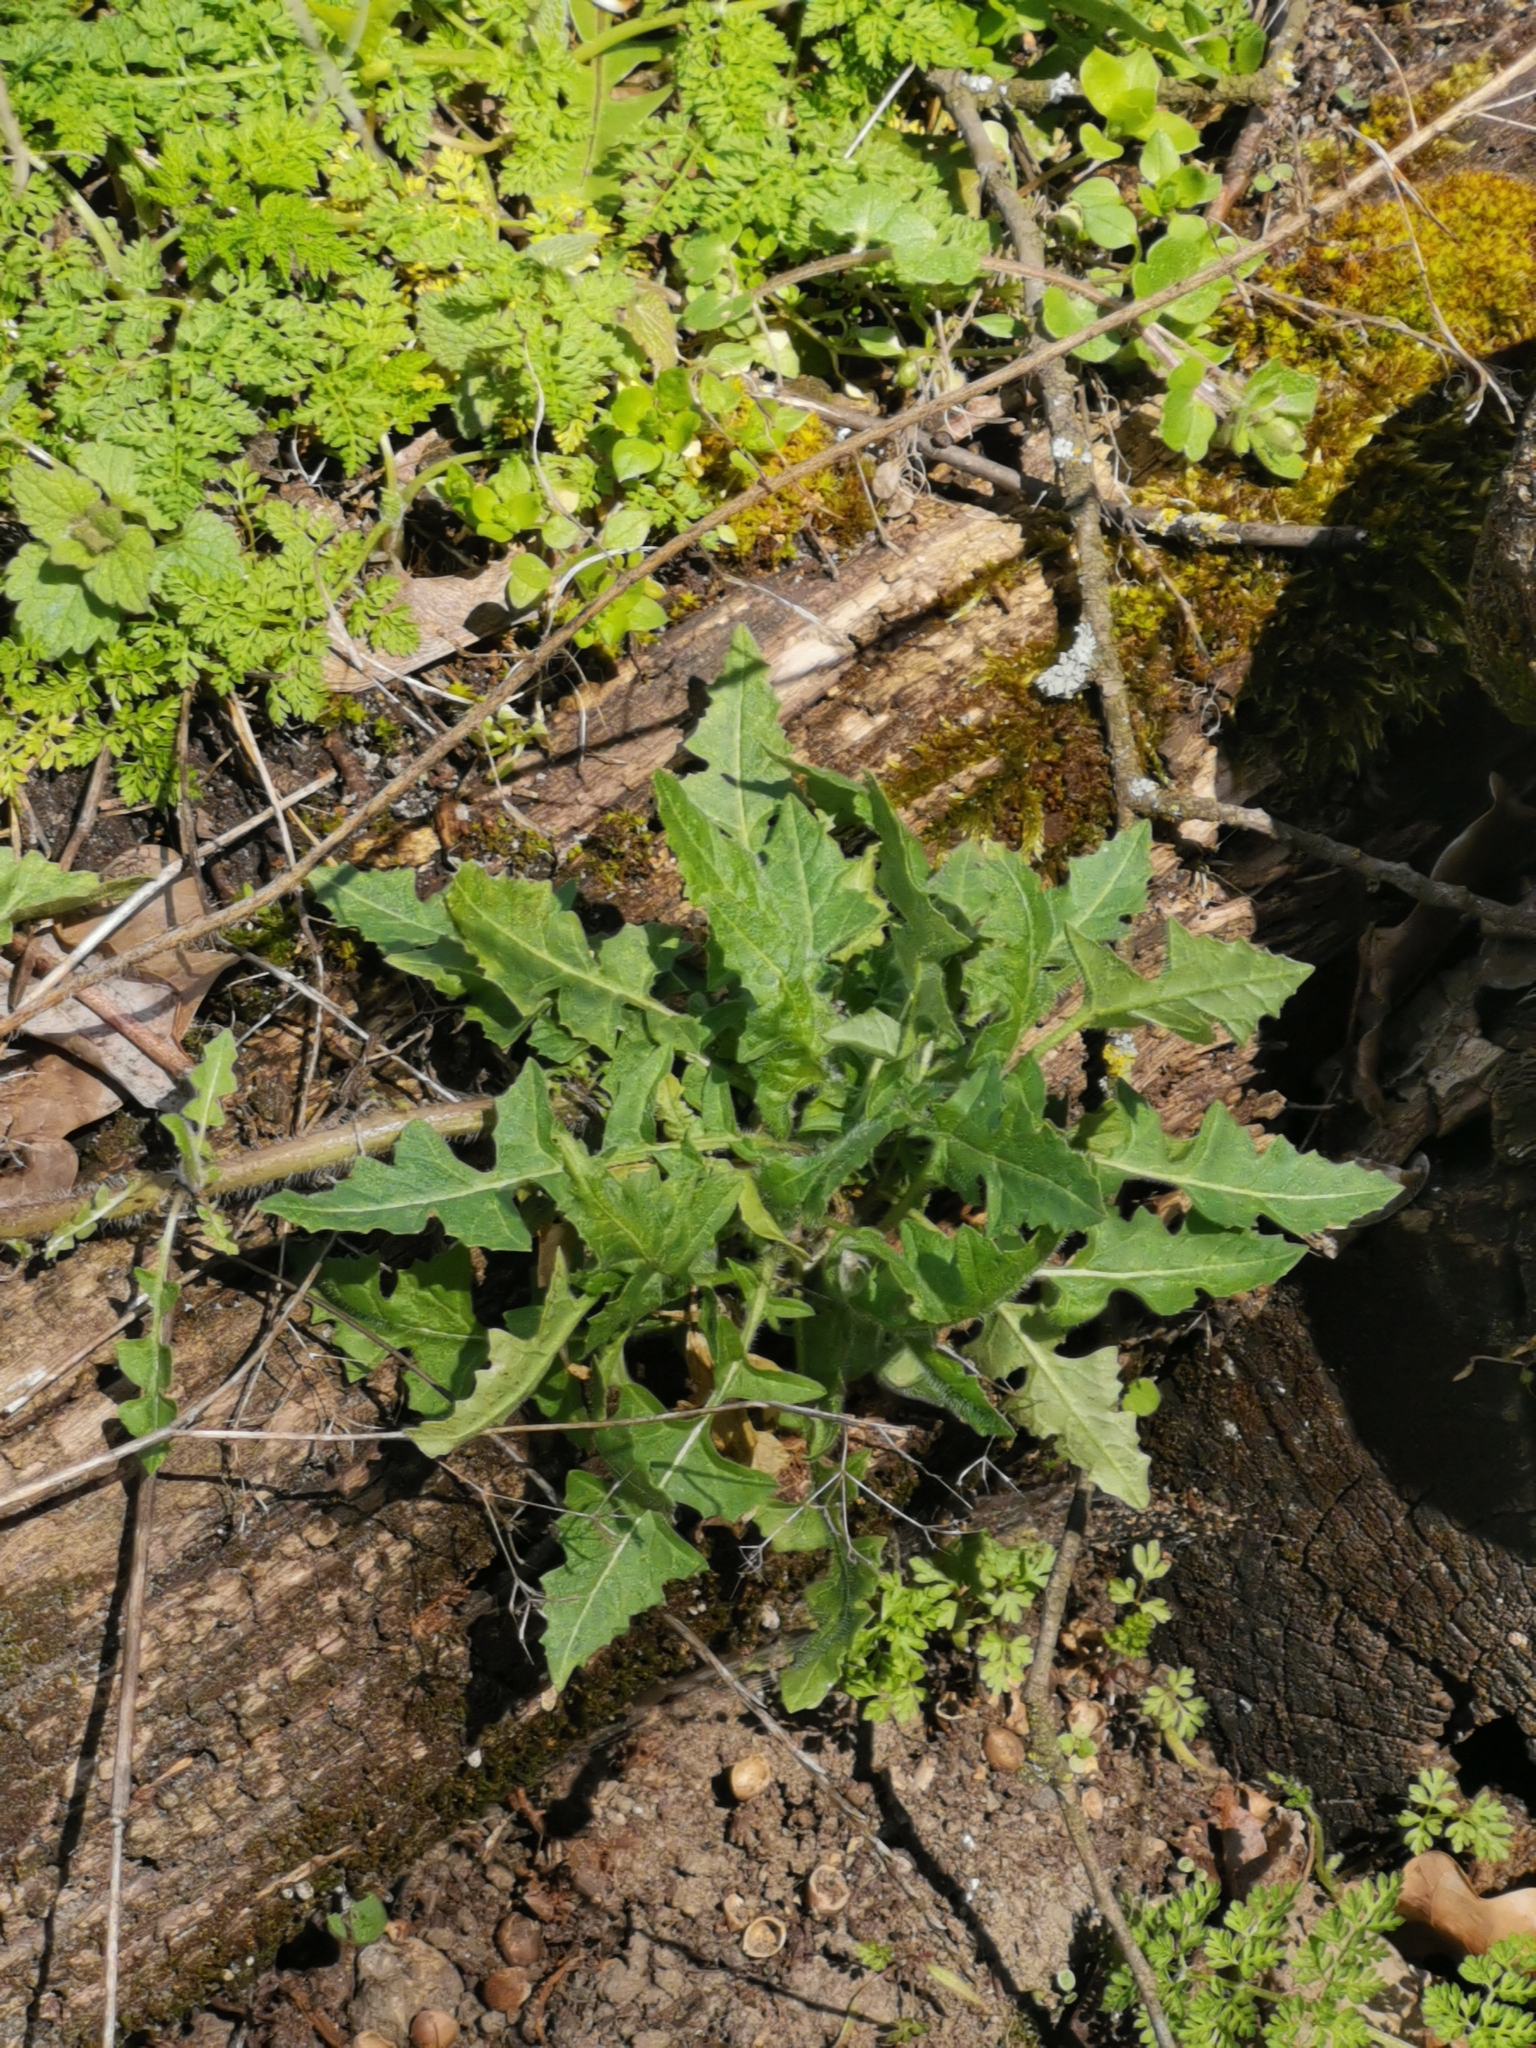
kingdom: Plantae
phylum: Tracheophyta
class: Magnoliopsida
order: Brassicales
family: Brassicaceae
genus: Sisymbrium
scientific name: Sisymbrium loeselii
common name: False london-rocket
